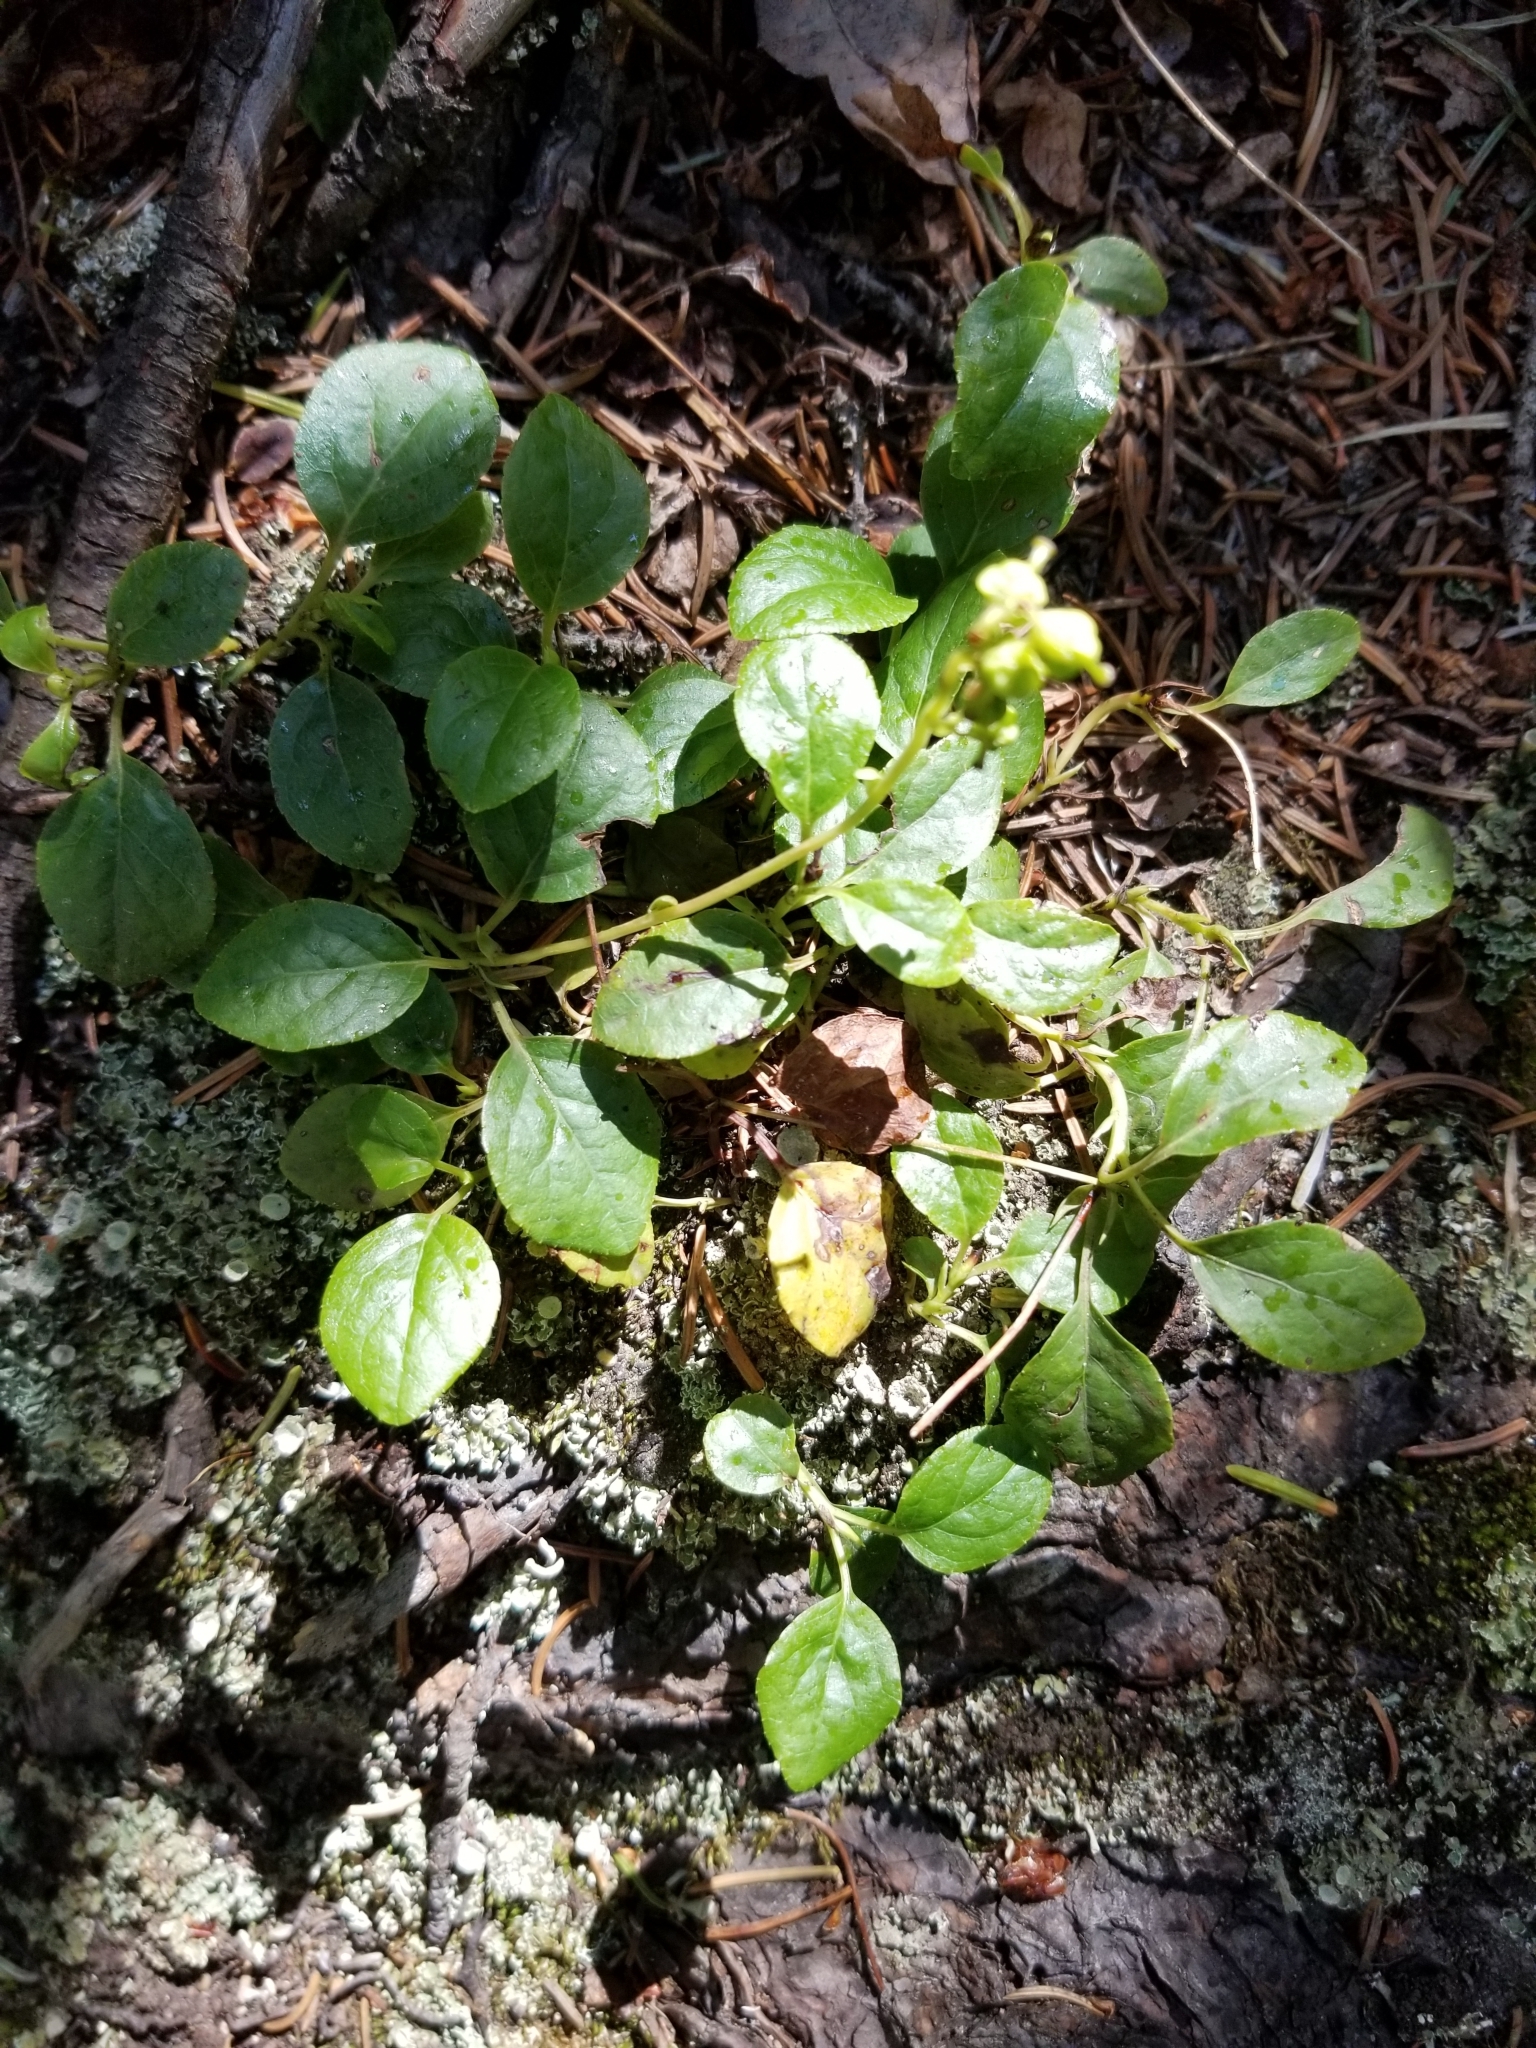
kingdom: Plantae
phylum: Tracheophyta
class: Magnoliopsida
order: Ericales
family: Ericaceae
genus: Orthilia
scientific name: Orthilia secunda
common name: One-sided orthilia
